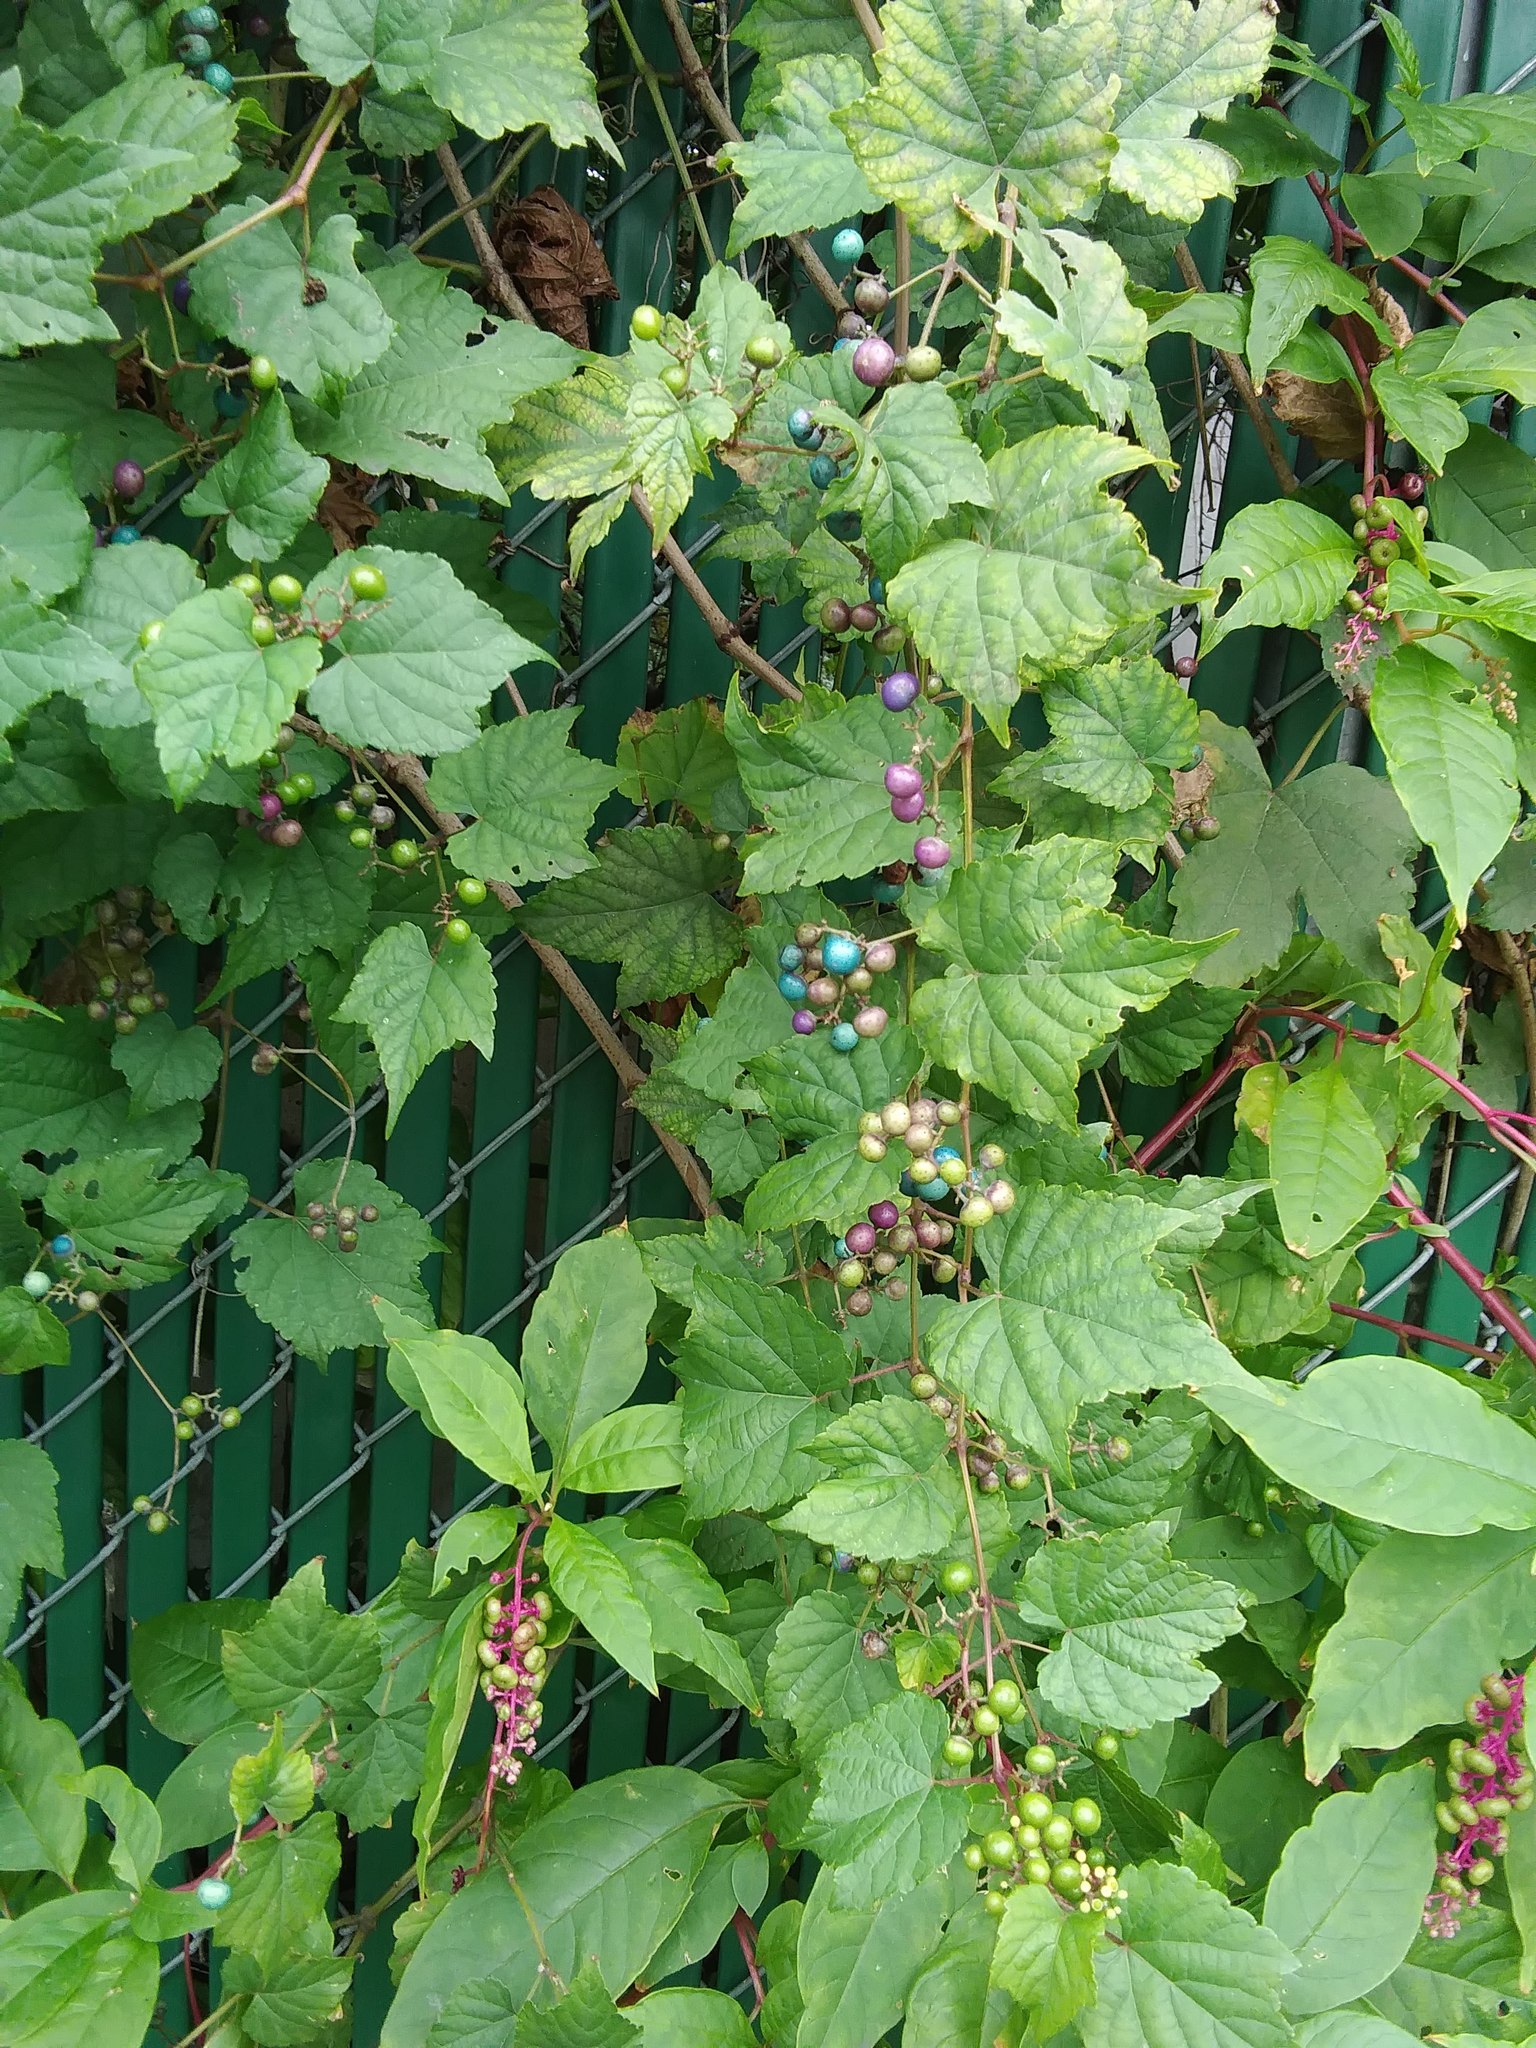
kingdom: Plantae
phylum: Tracheophyta
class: Magnoliopsida
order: Vitales
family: Vitaceae
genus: Ampelopsis
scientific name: Ampelopsis glandulosa
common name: Amur peppervine
